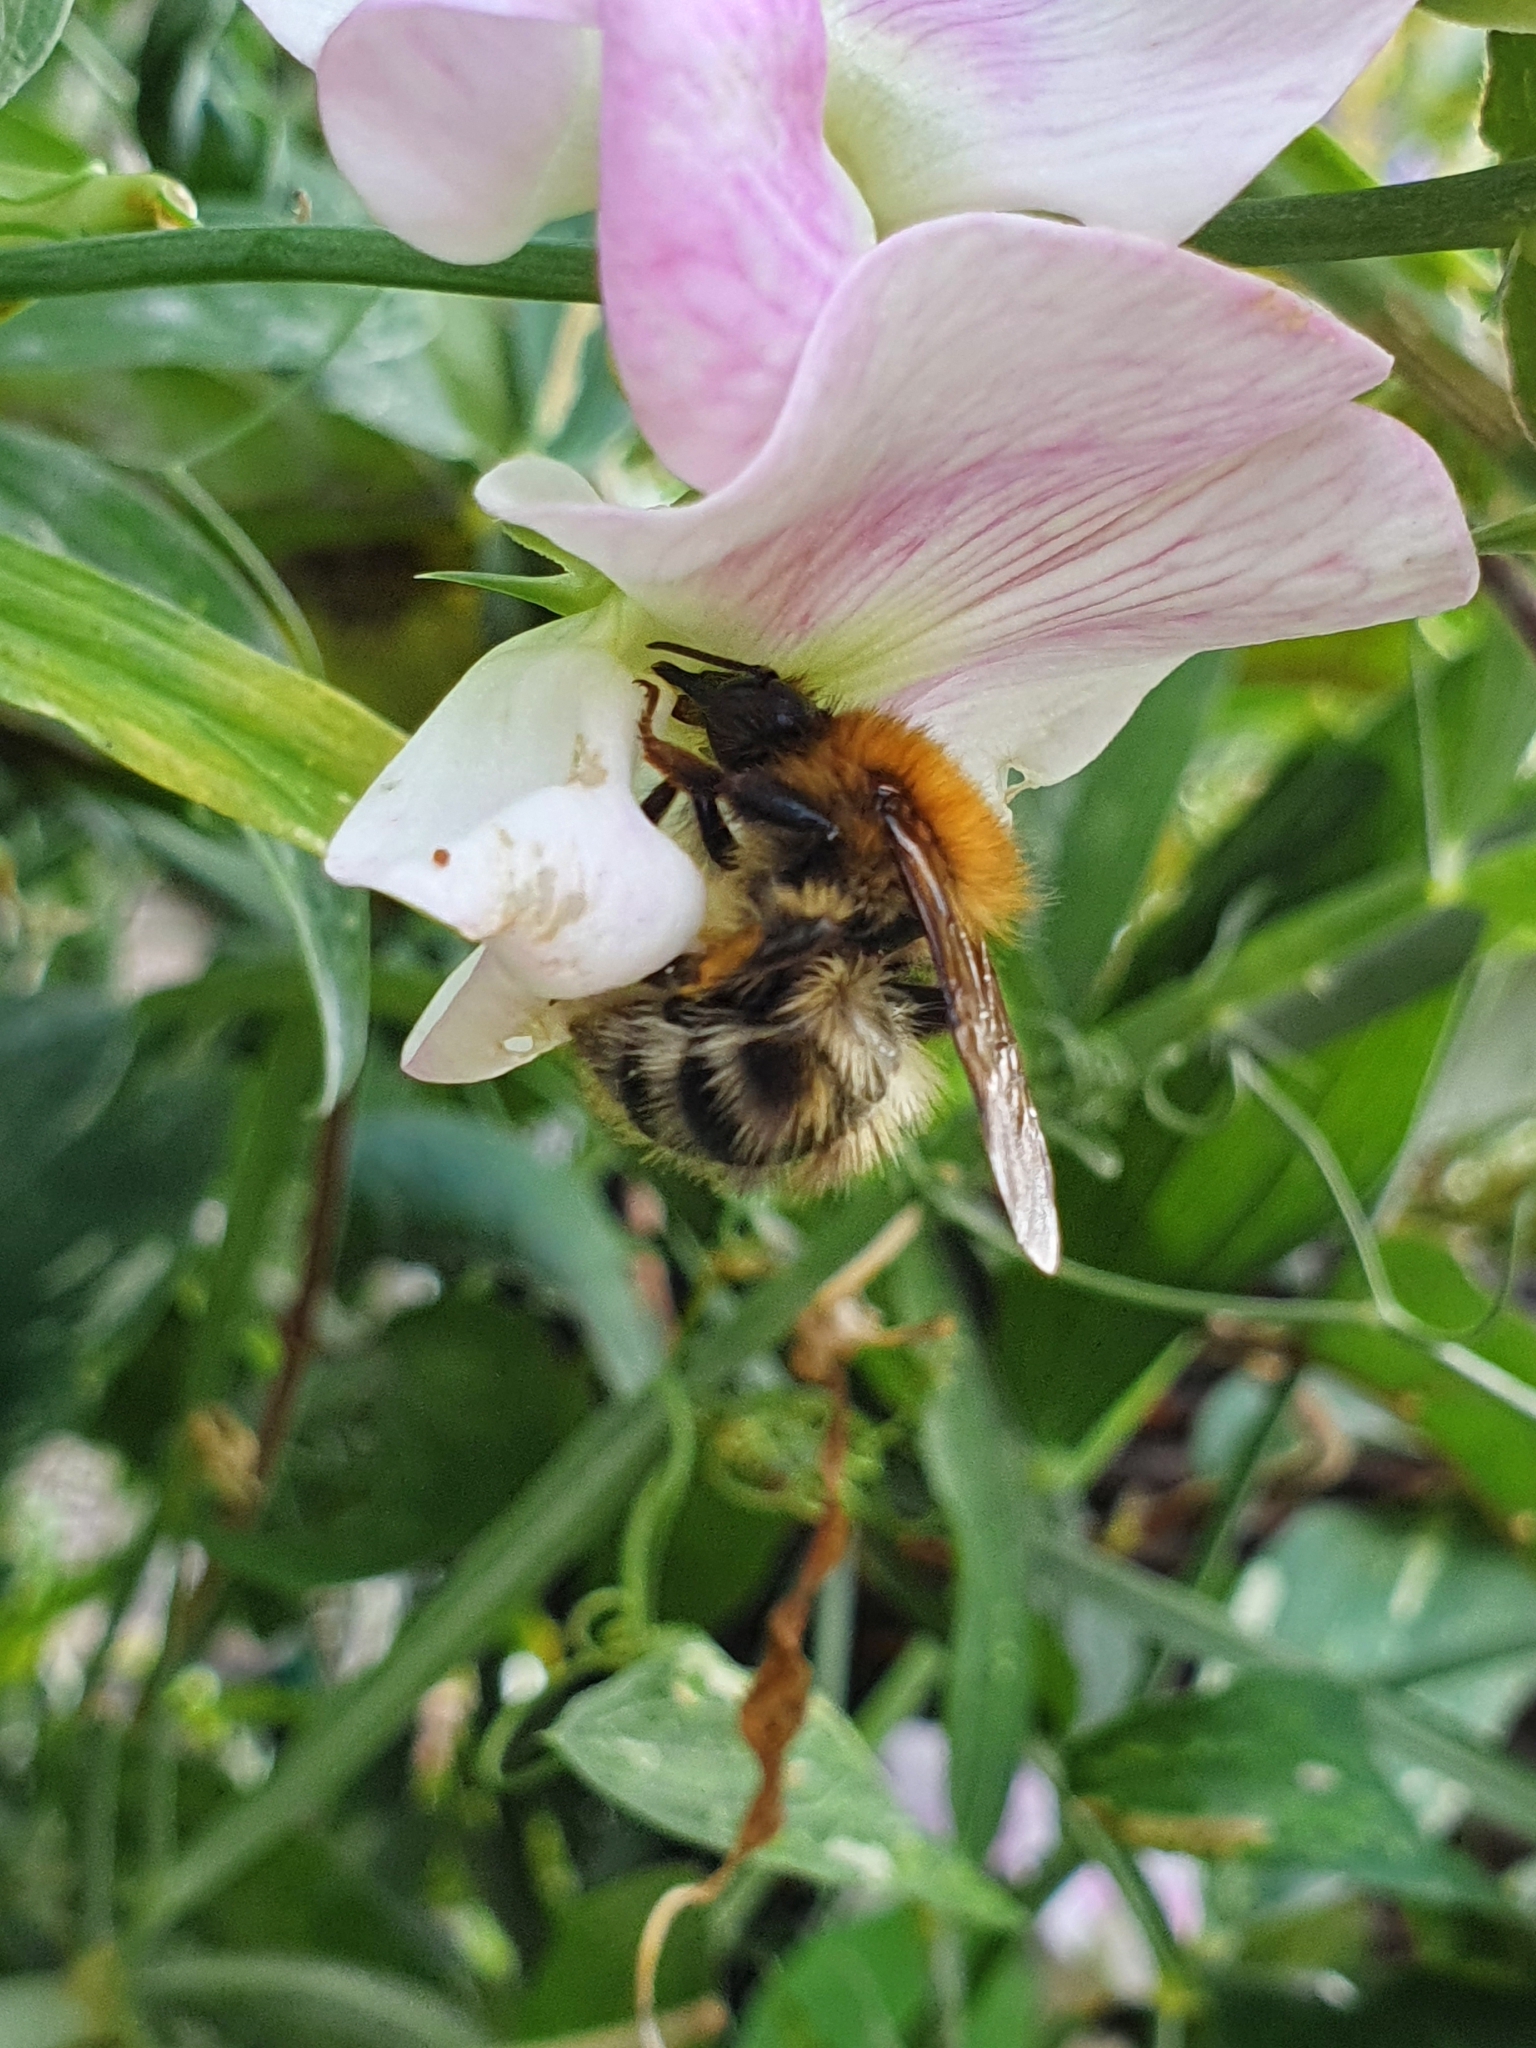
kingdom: Animalia
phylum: Arthropoda
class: Insecta
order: Hymenoptera
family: Apidae
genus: Bombus
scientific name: Bombus pascuorum
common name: Common carder bee
